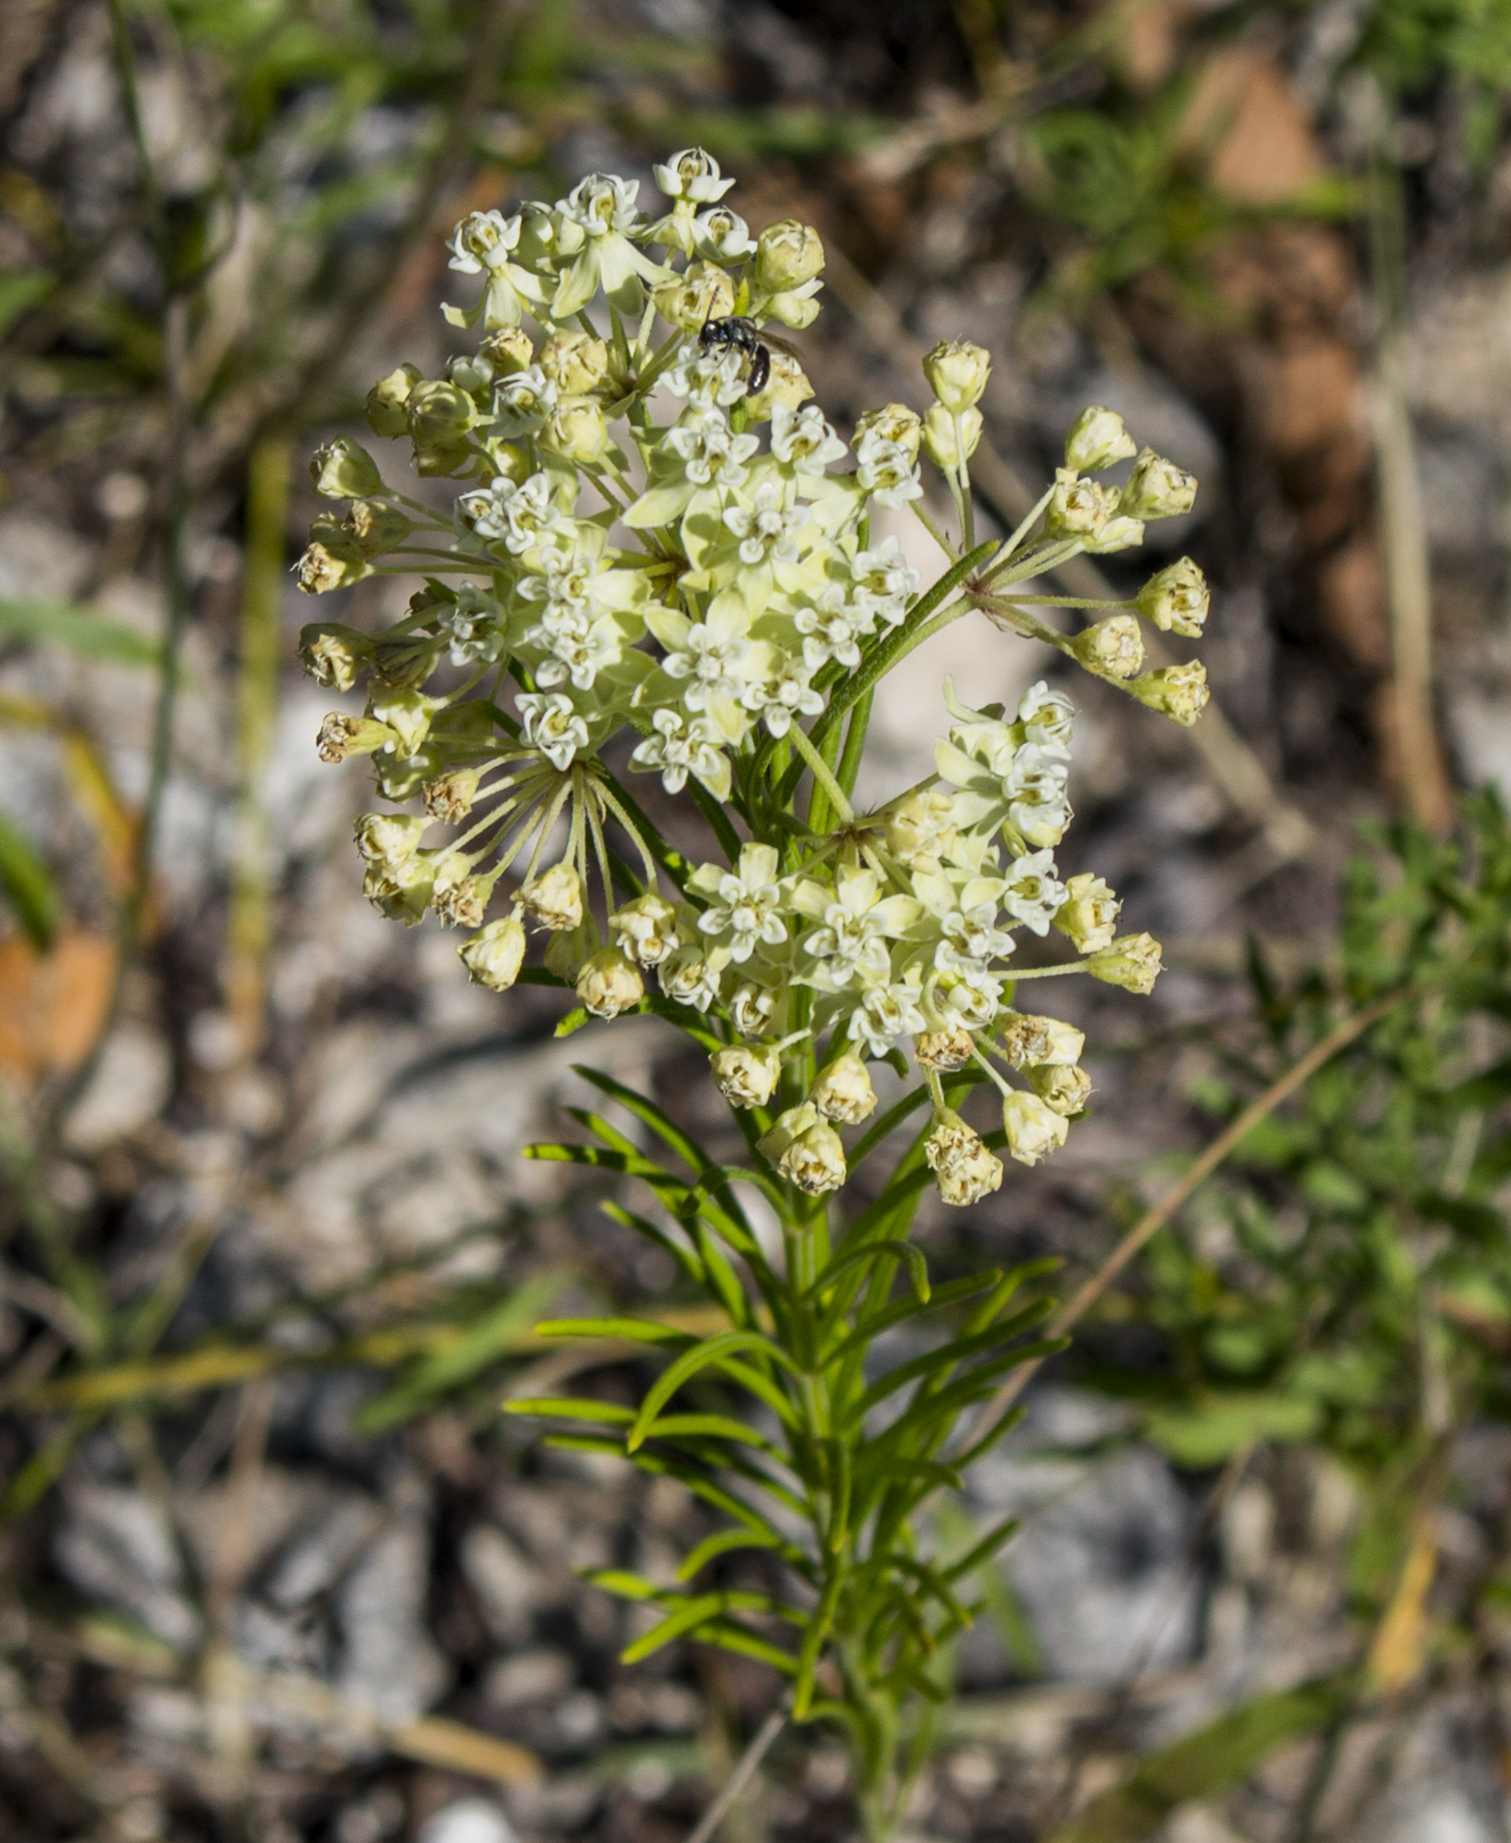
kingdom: Plantae
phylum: Tracheophyta
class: Magnoliopsida
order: Gentianales
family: Apocynaceae
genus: Asclepias
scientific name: Asclepias verticillata
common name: Eastern whorled milkweed
